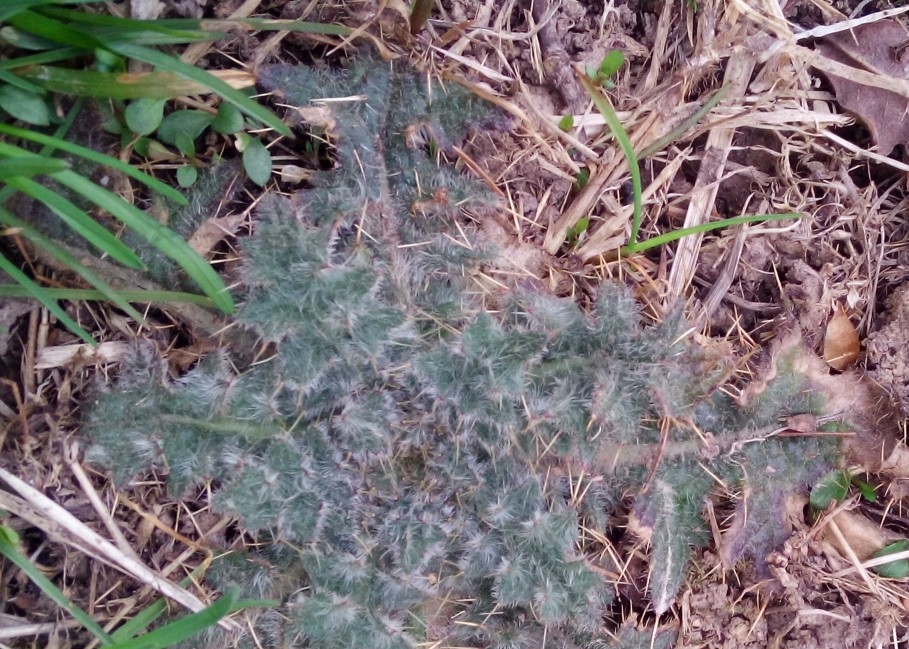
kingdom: Plantae
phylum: Tracheophyta
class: Magnoliopsida
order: Asterales
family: Asteraceae
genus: Cirsium
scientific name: Cirsium vulgare
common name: Bull thistle
